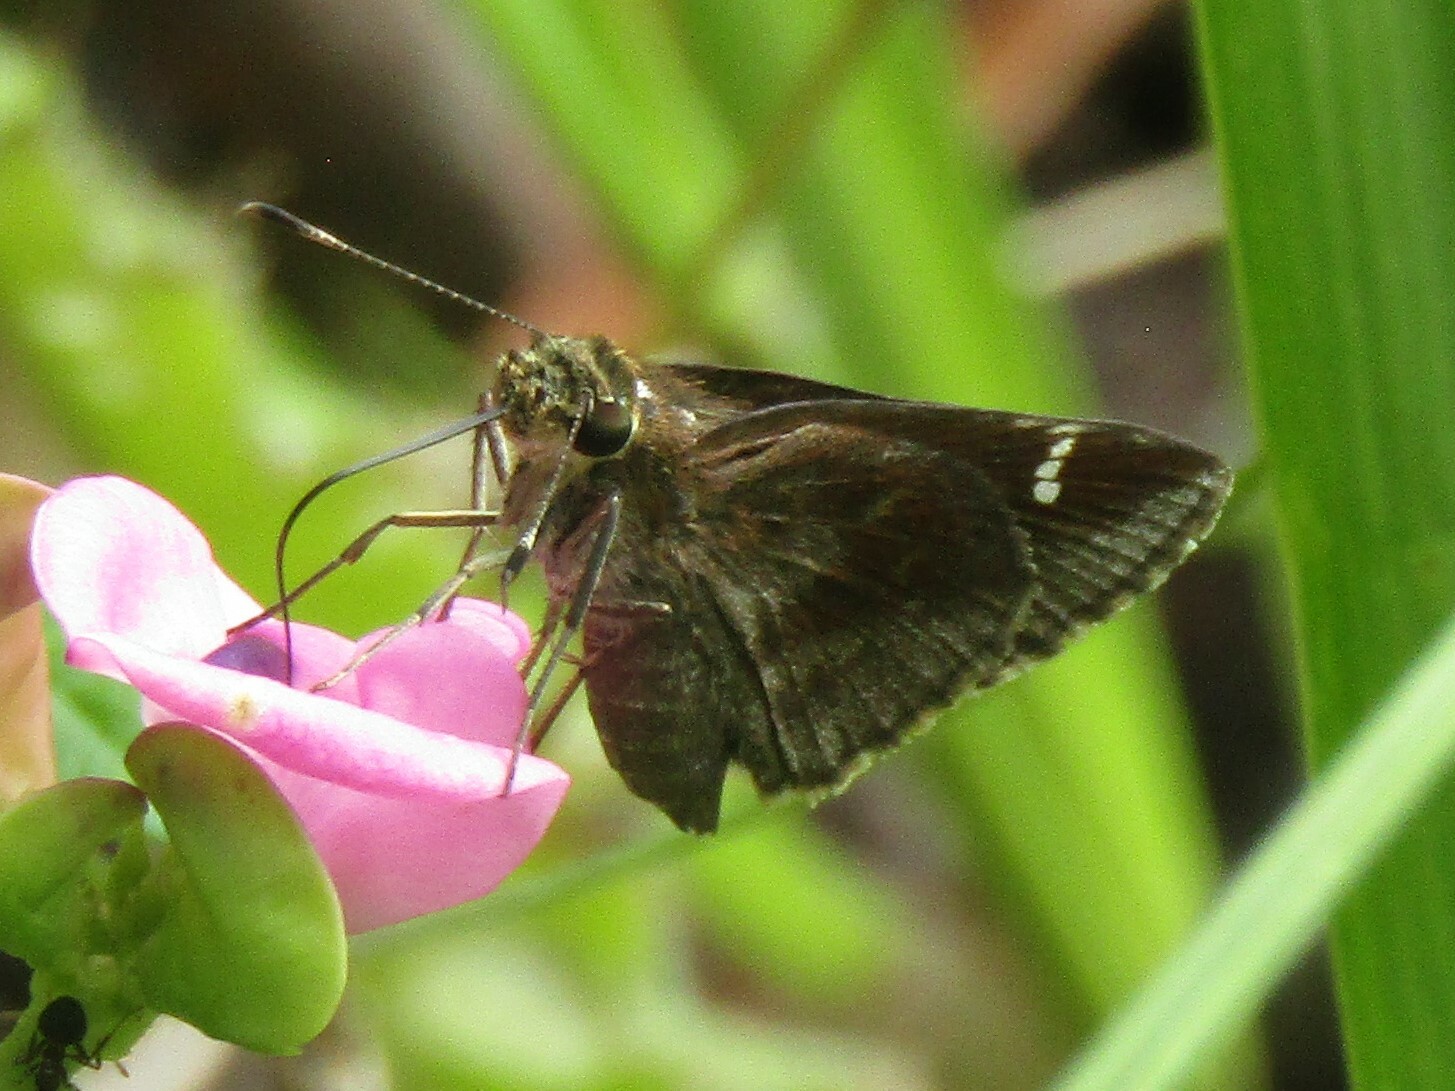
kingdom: Animalia
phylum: Arthropoda
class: Insecta
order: Lepidoptera
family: Hesperiidae
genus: Lerema
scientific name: Lerema accius
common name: Clouded skipper
